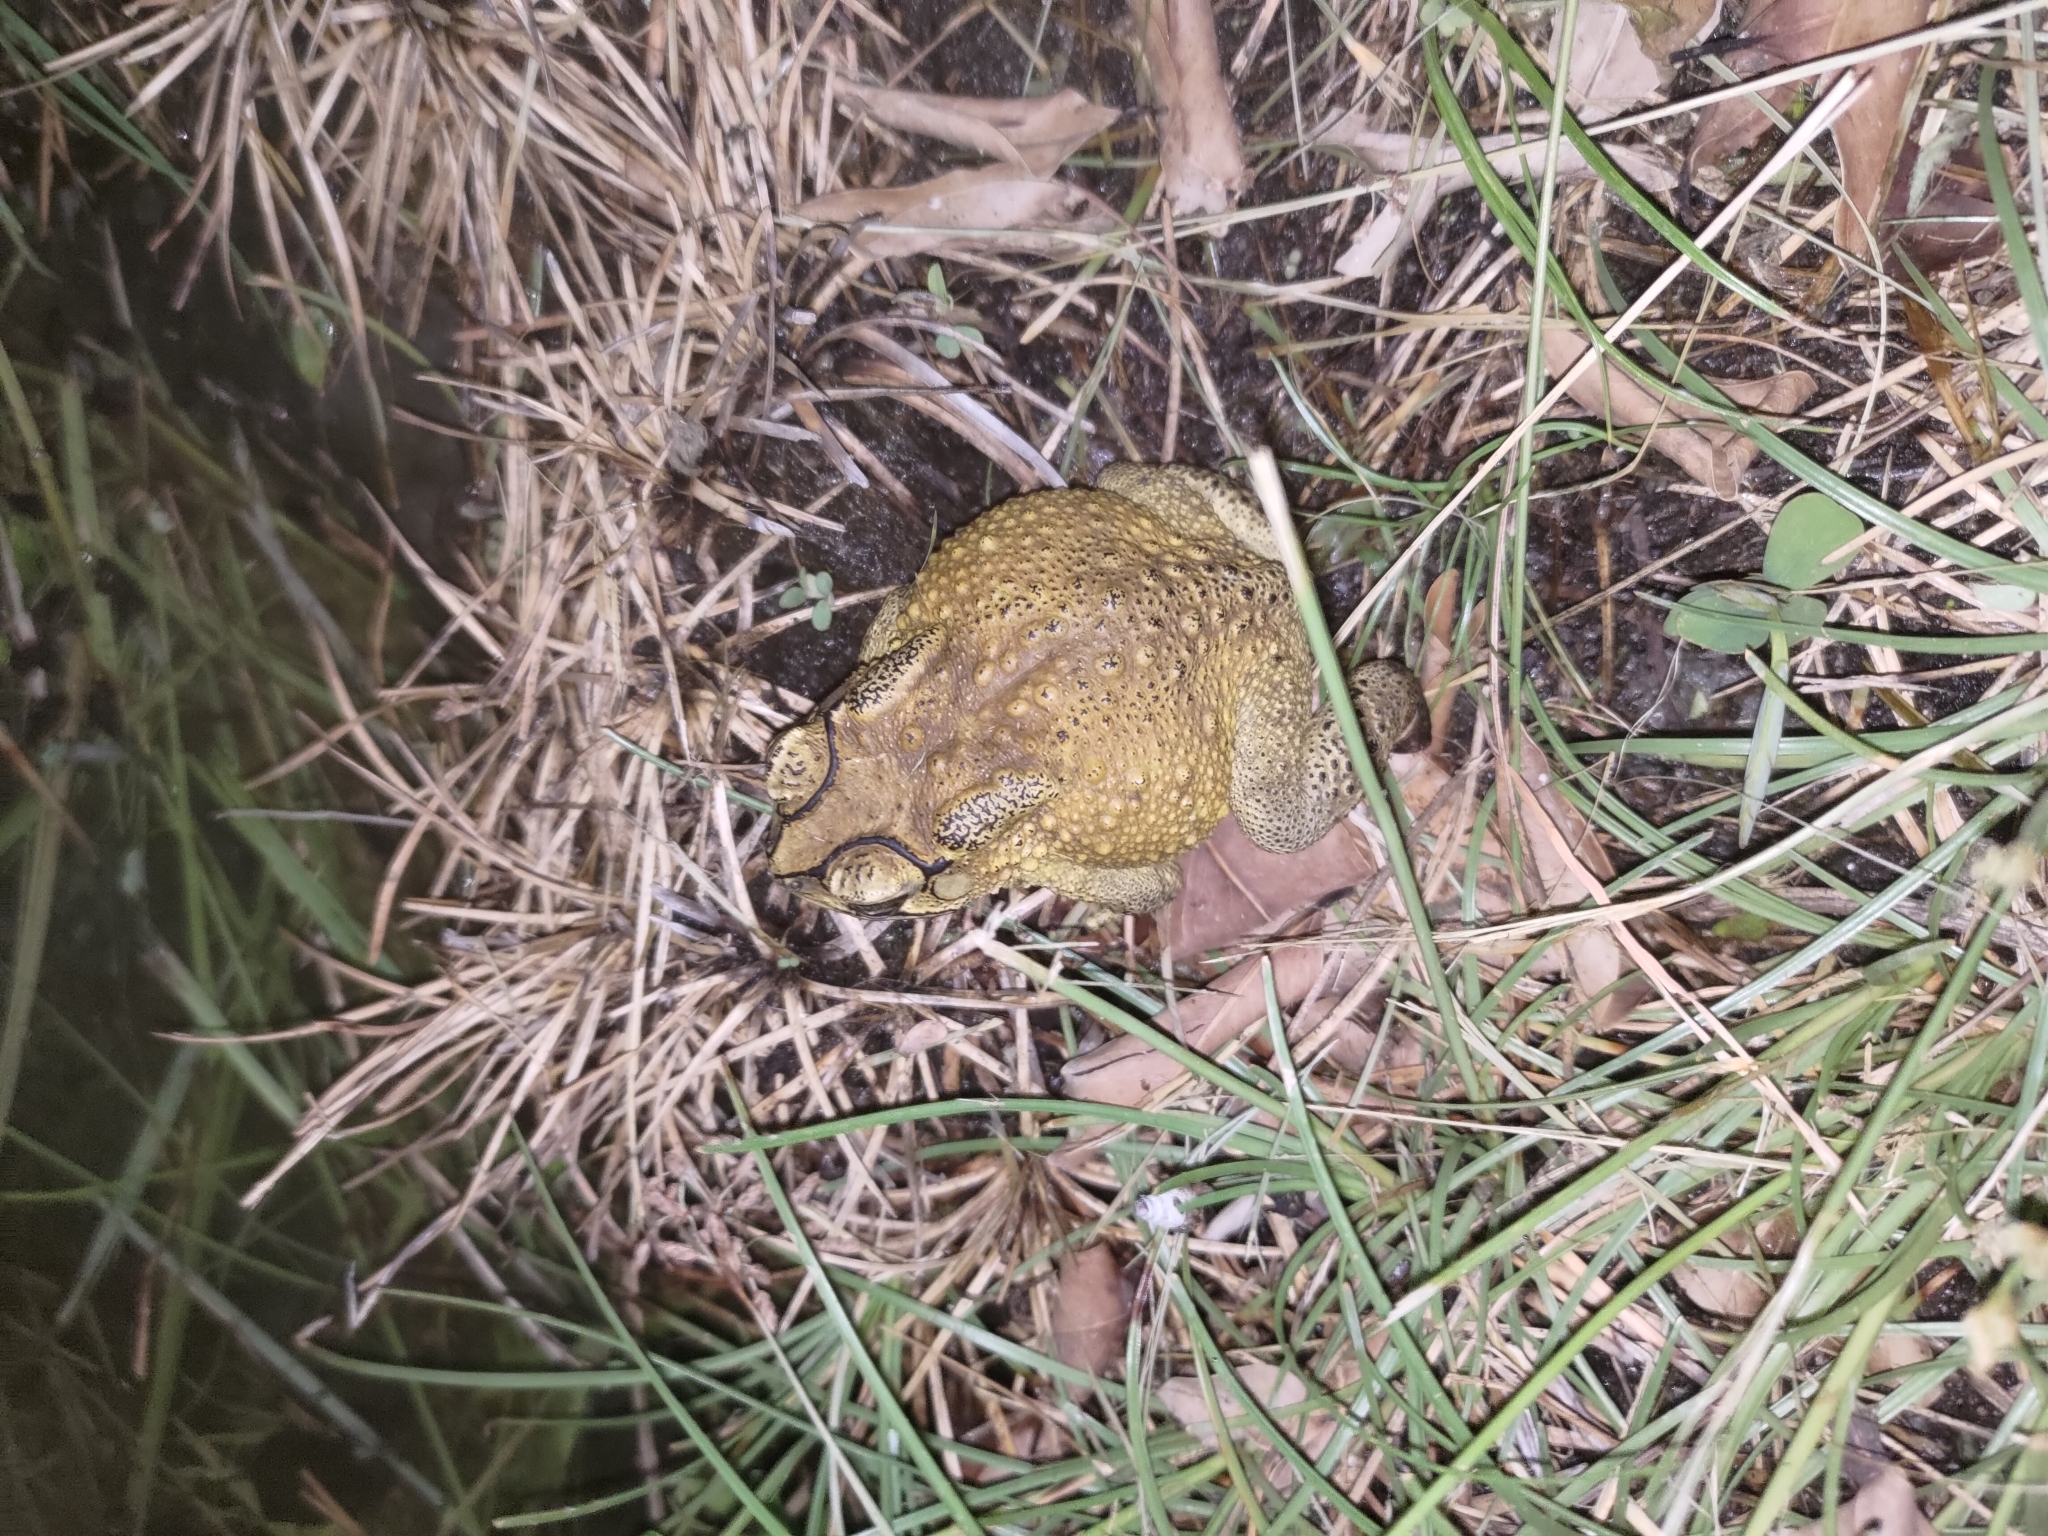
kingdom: Animalia
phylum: Chordata
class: Amphibia
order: Anura
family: Bufonidae
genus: Duttaphrynus
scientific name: Duttaphrynus melanostictus
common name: Common sunda toad
